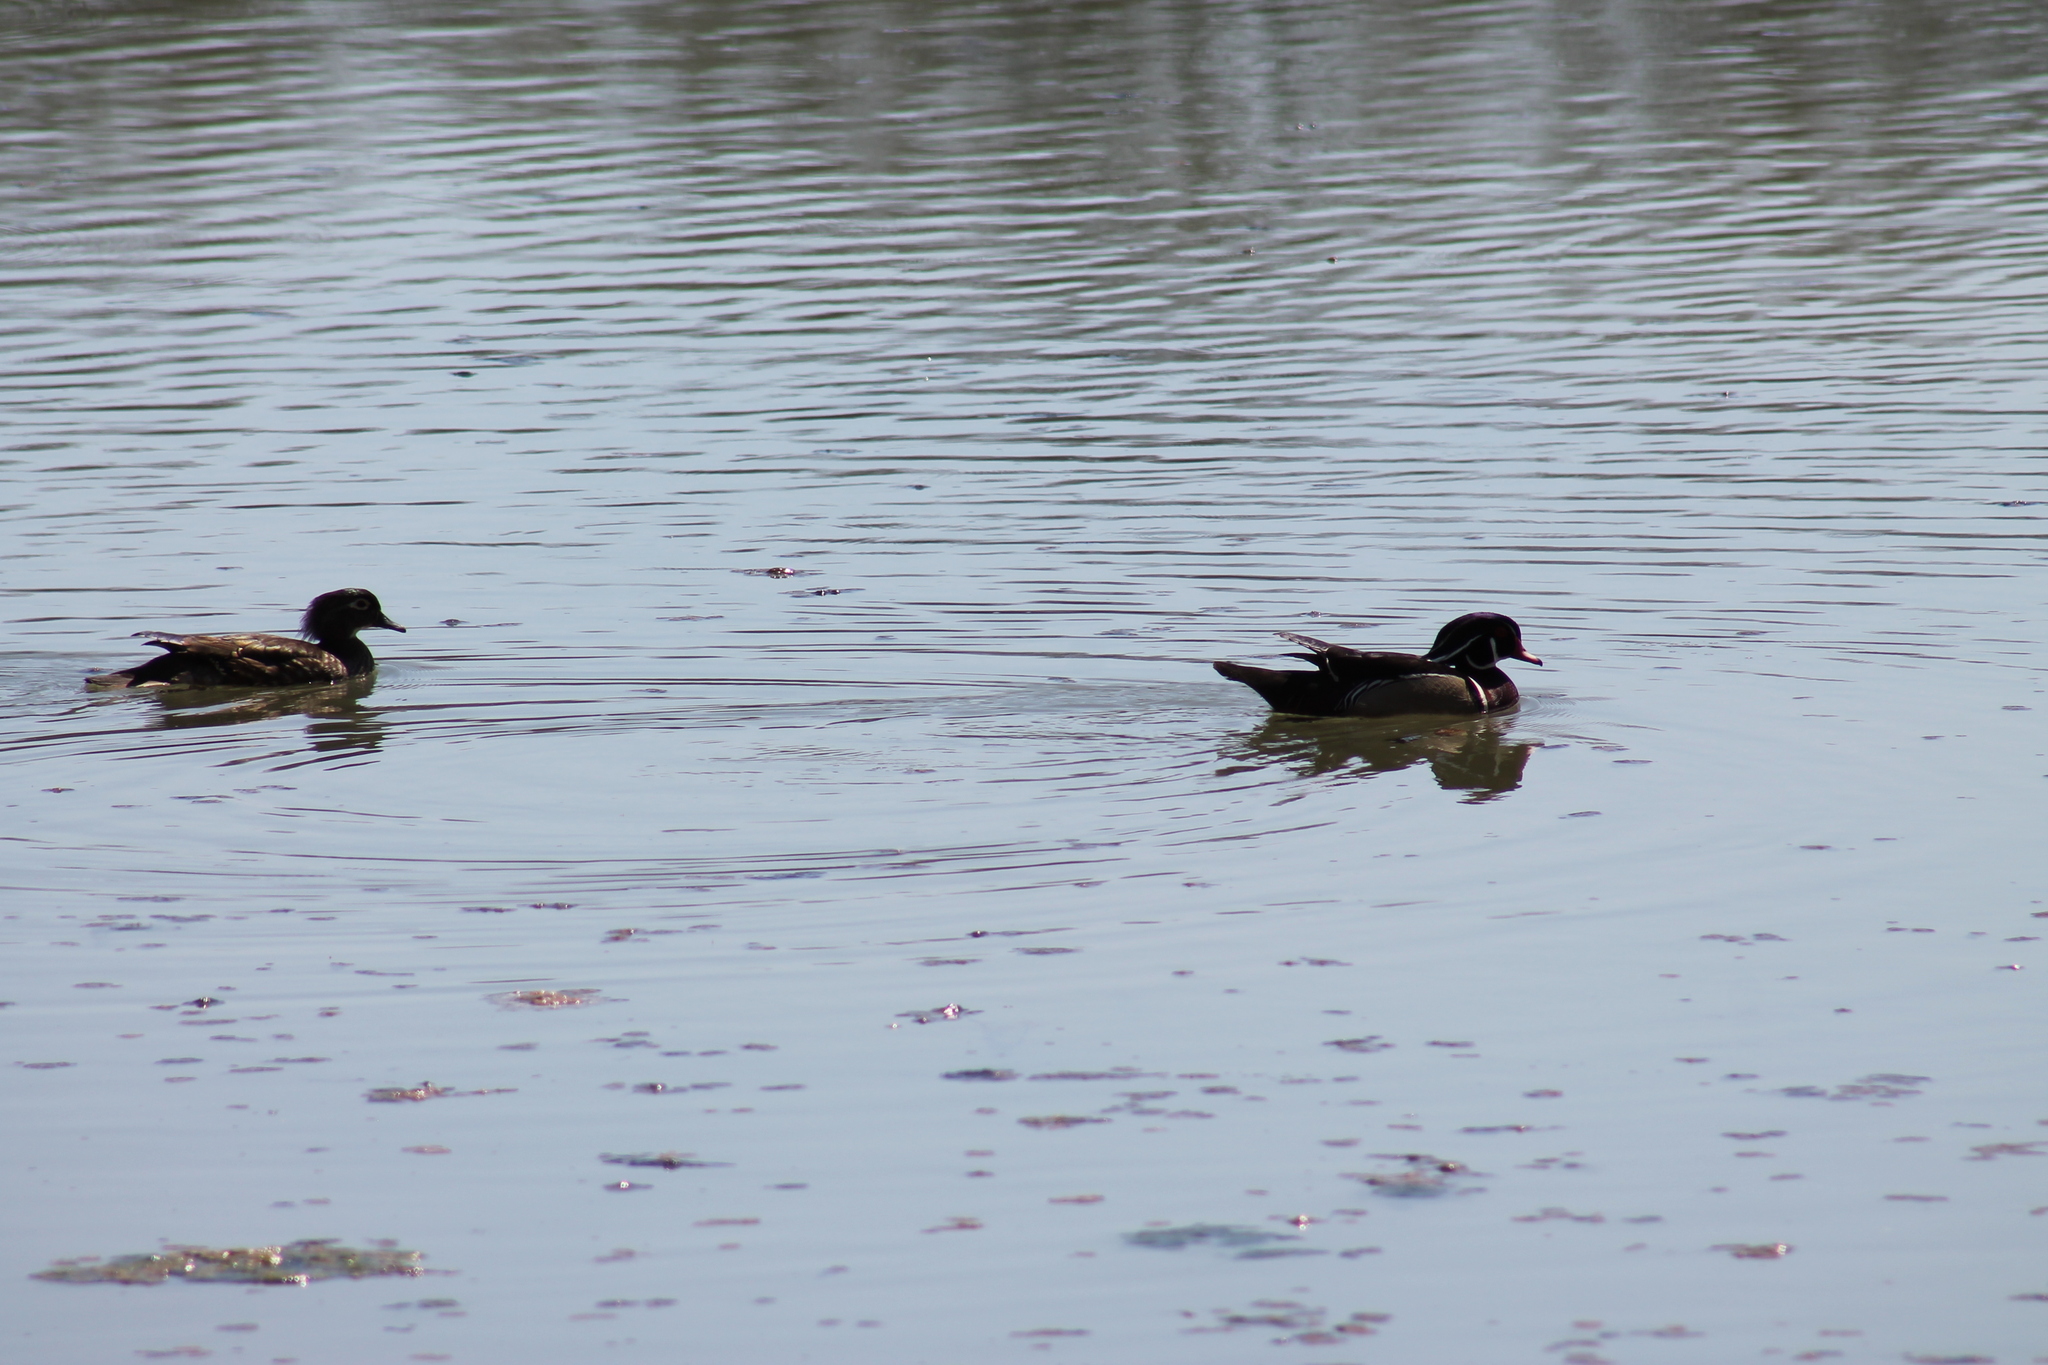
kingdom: Animalia
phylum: Chordata
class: Aves
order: Anseriformes
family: Anatidae
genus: Aix
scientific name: Aix sponsa
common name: Wood duck
